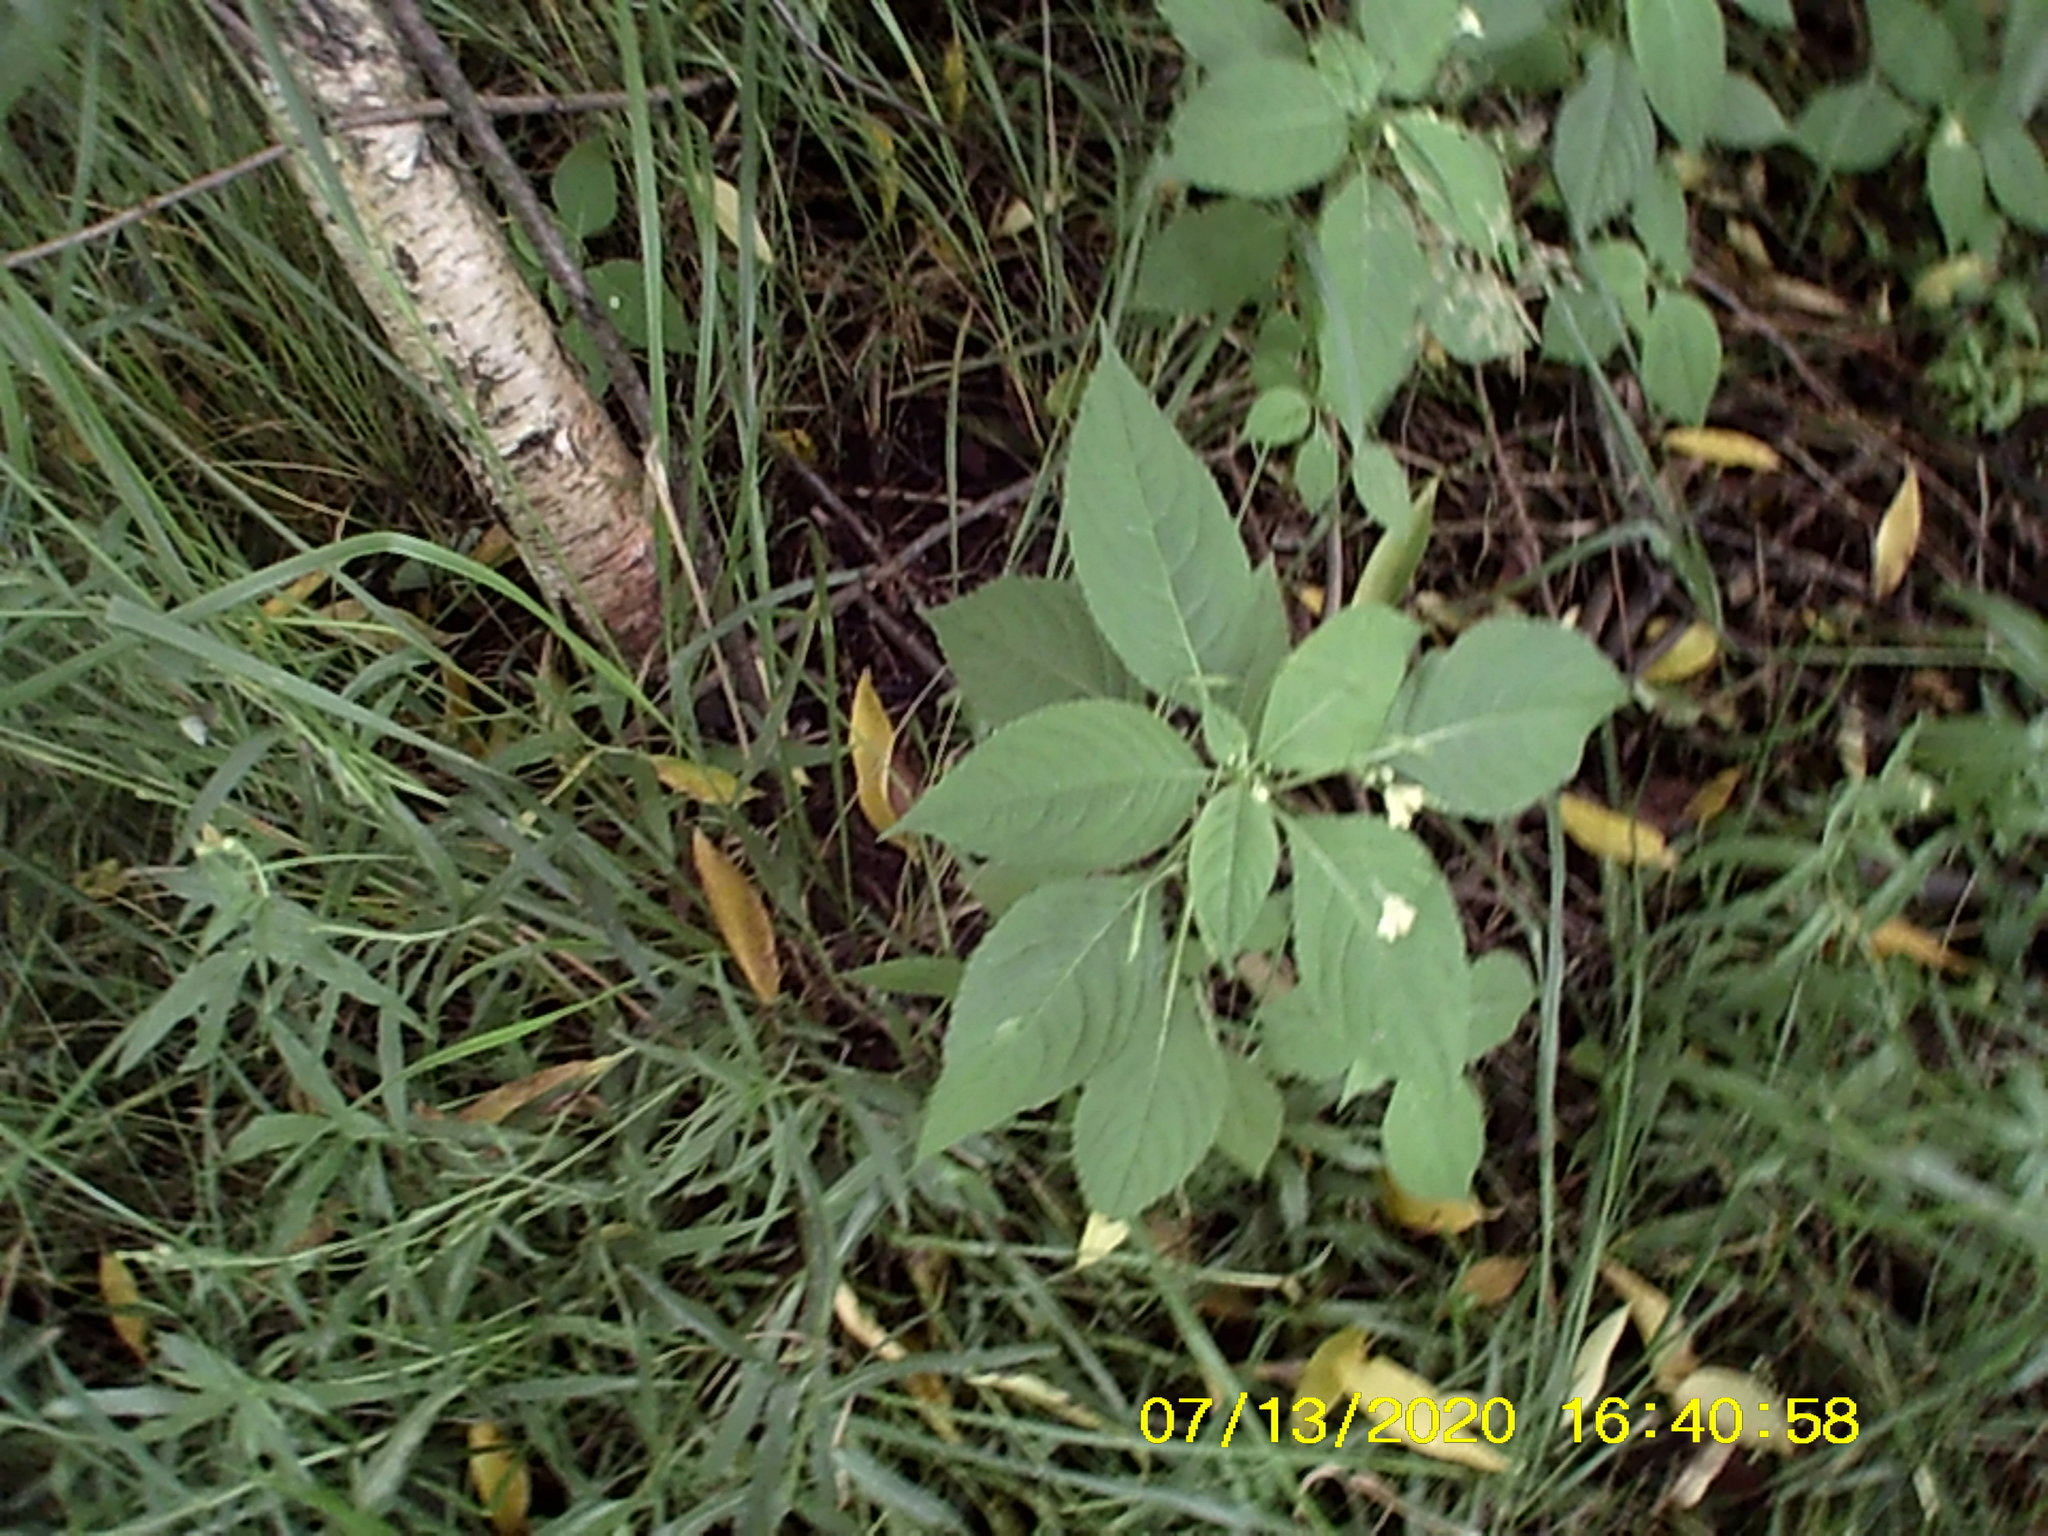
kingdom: Plantae
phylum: Tracheophyta
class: Magnoliopsida
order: Ericales
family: Balsaminaceae
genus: Impatiens
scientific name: Impatiens parviflora
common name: Small balsam
